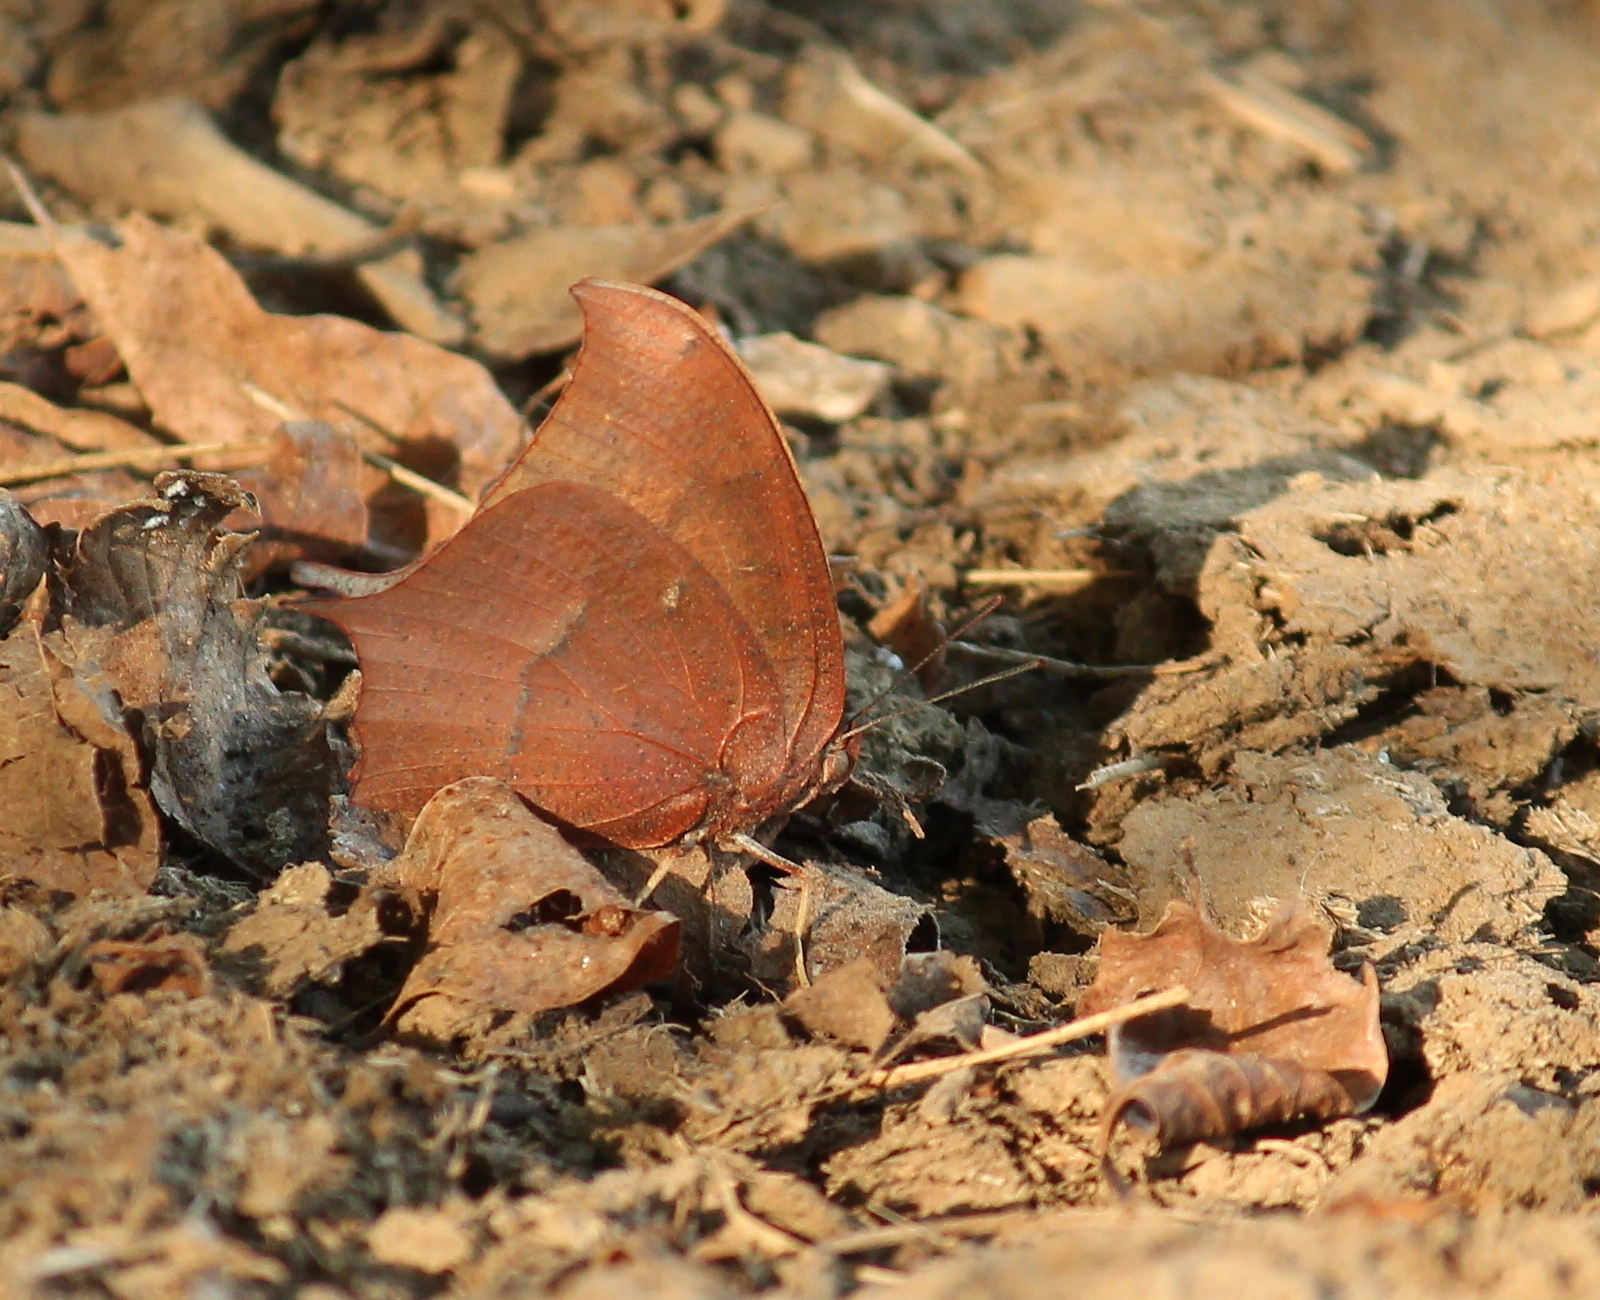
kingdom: Animalia
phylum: Arthropoda
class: Insecta
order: Lepidoptera
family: Nymphalidae
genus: Anaea
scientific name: Anaea andria
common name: Goatweed leafwing
